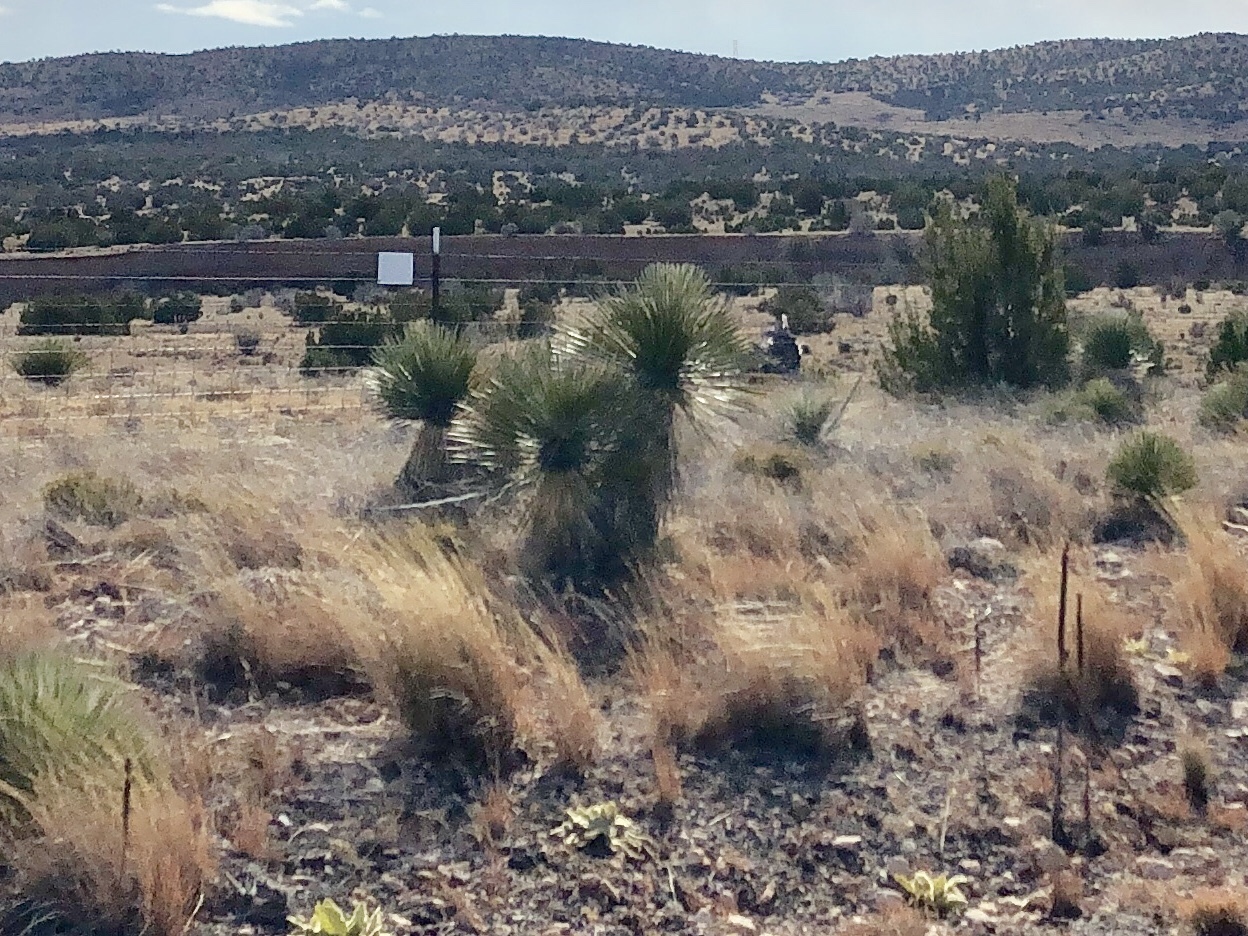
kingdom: Plantae
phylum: Tracheophyta
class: Liliopsida
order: Asparagales
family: Asparagaceae
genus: Yucca
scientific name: Yucca elata
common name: Palmella
